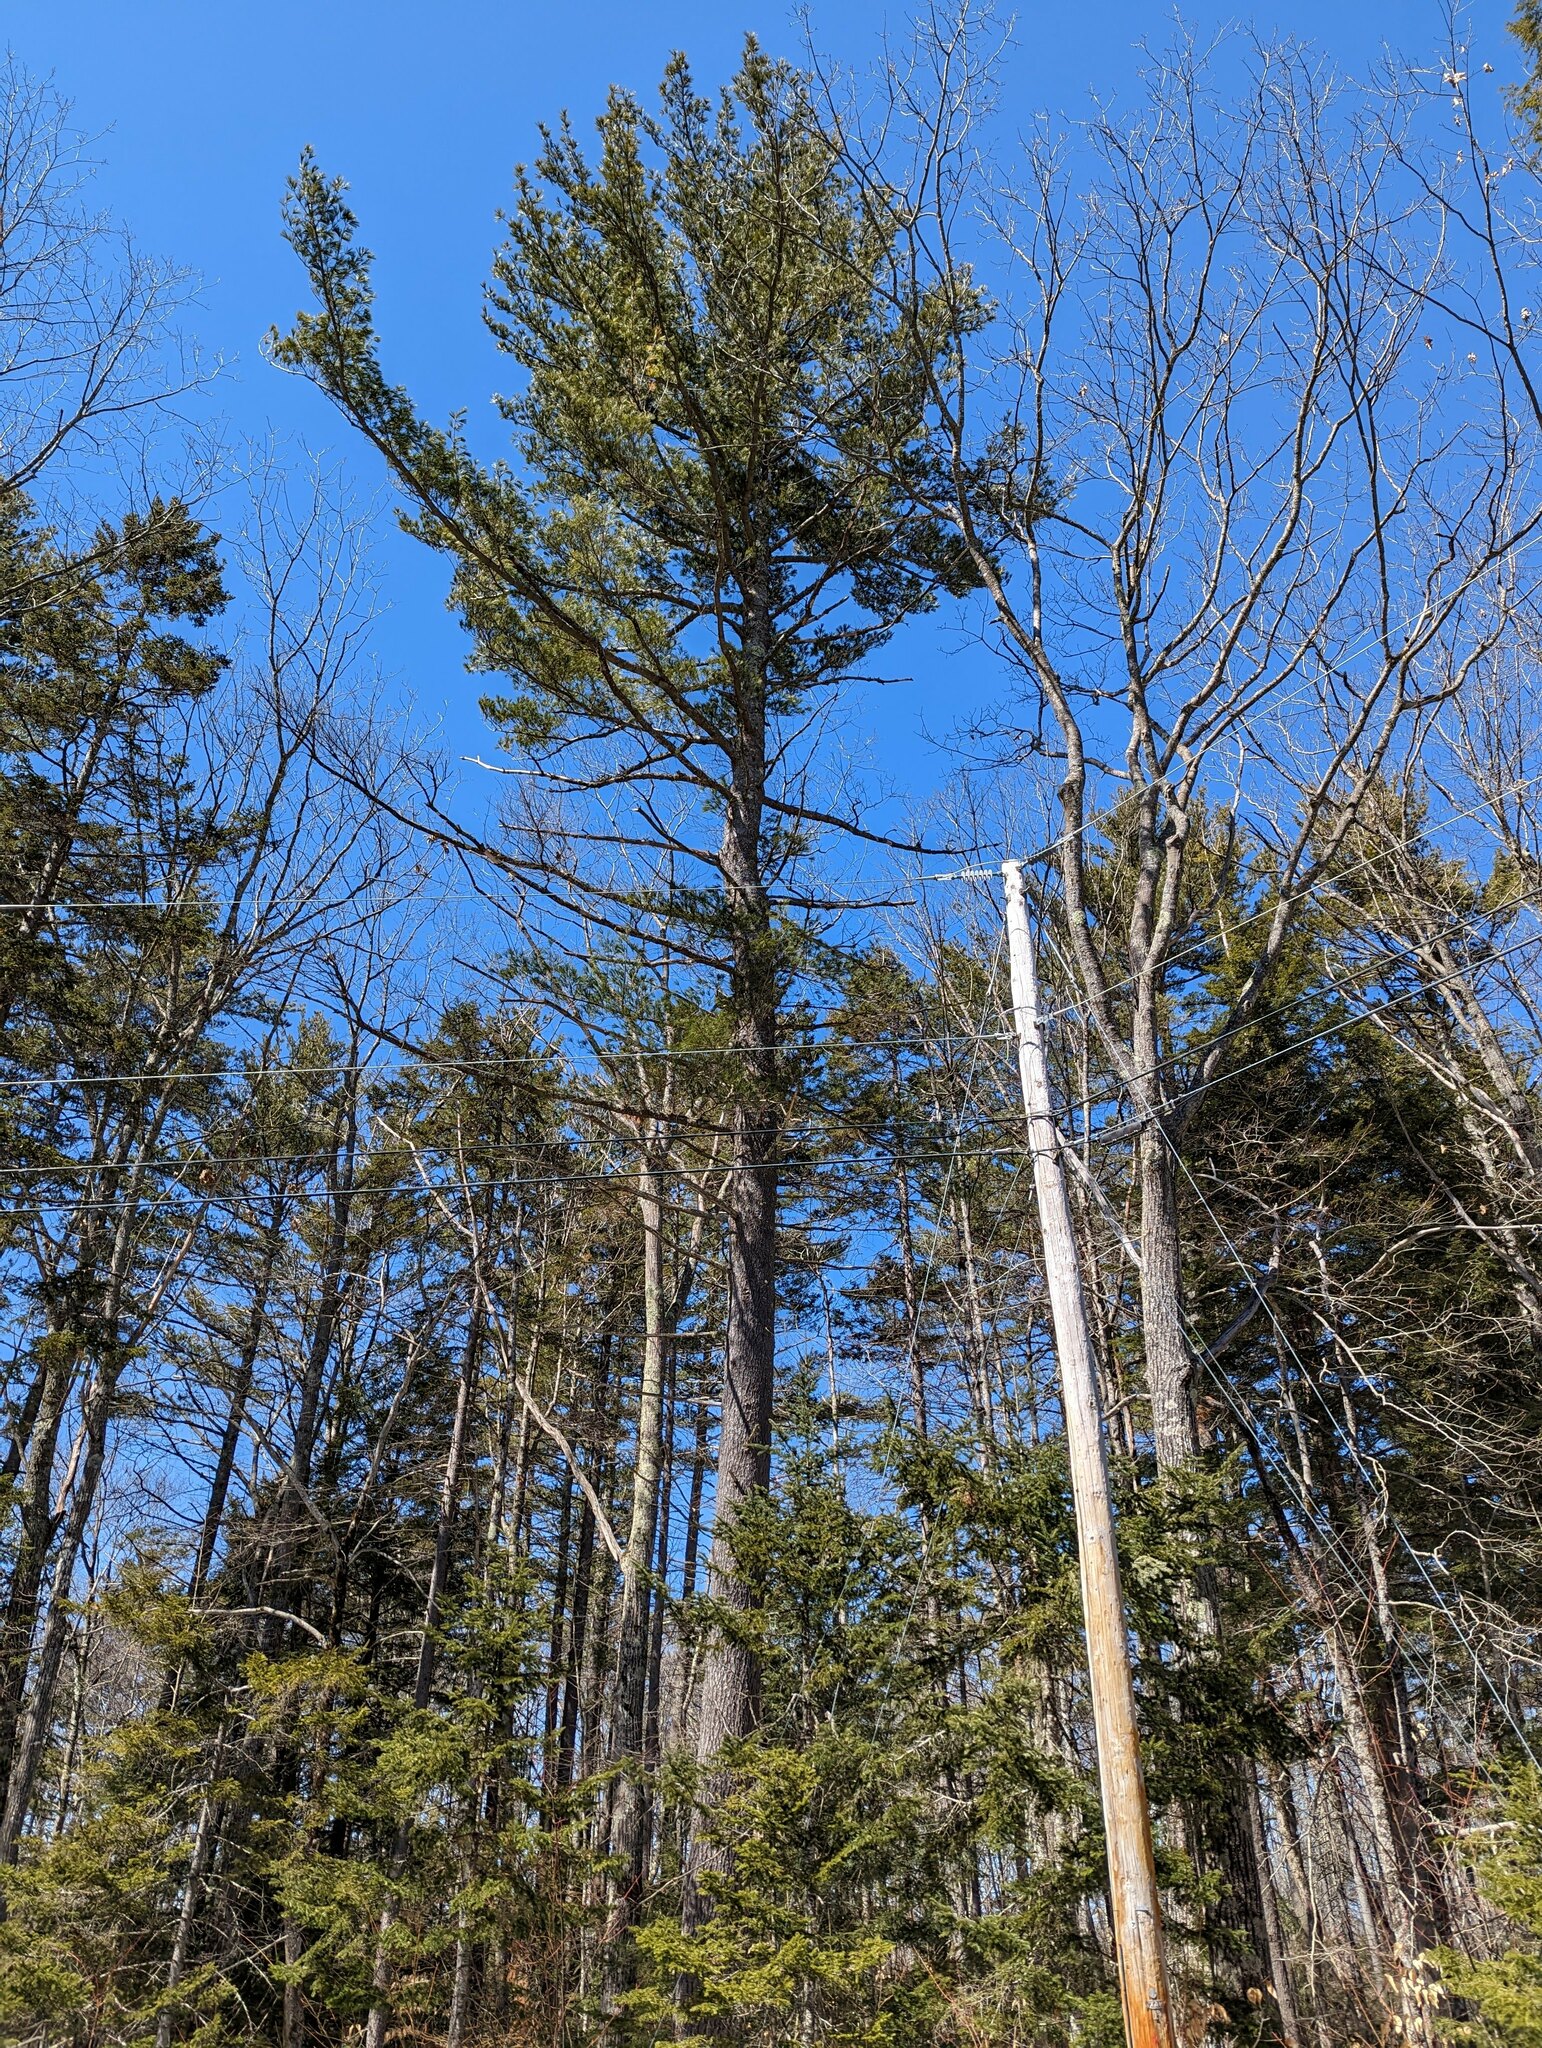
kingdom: Plantae
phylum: Tracheophyta
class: Pinopsida
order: Pinales
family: Pinaceae
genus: Pinus
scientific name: Pinus strobus
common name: Weymouth pine
